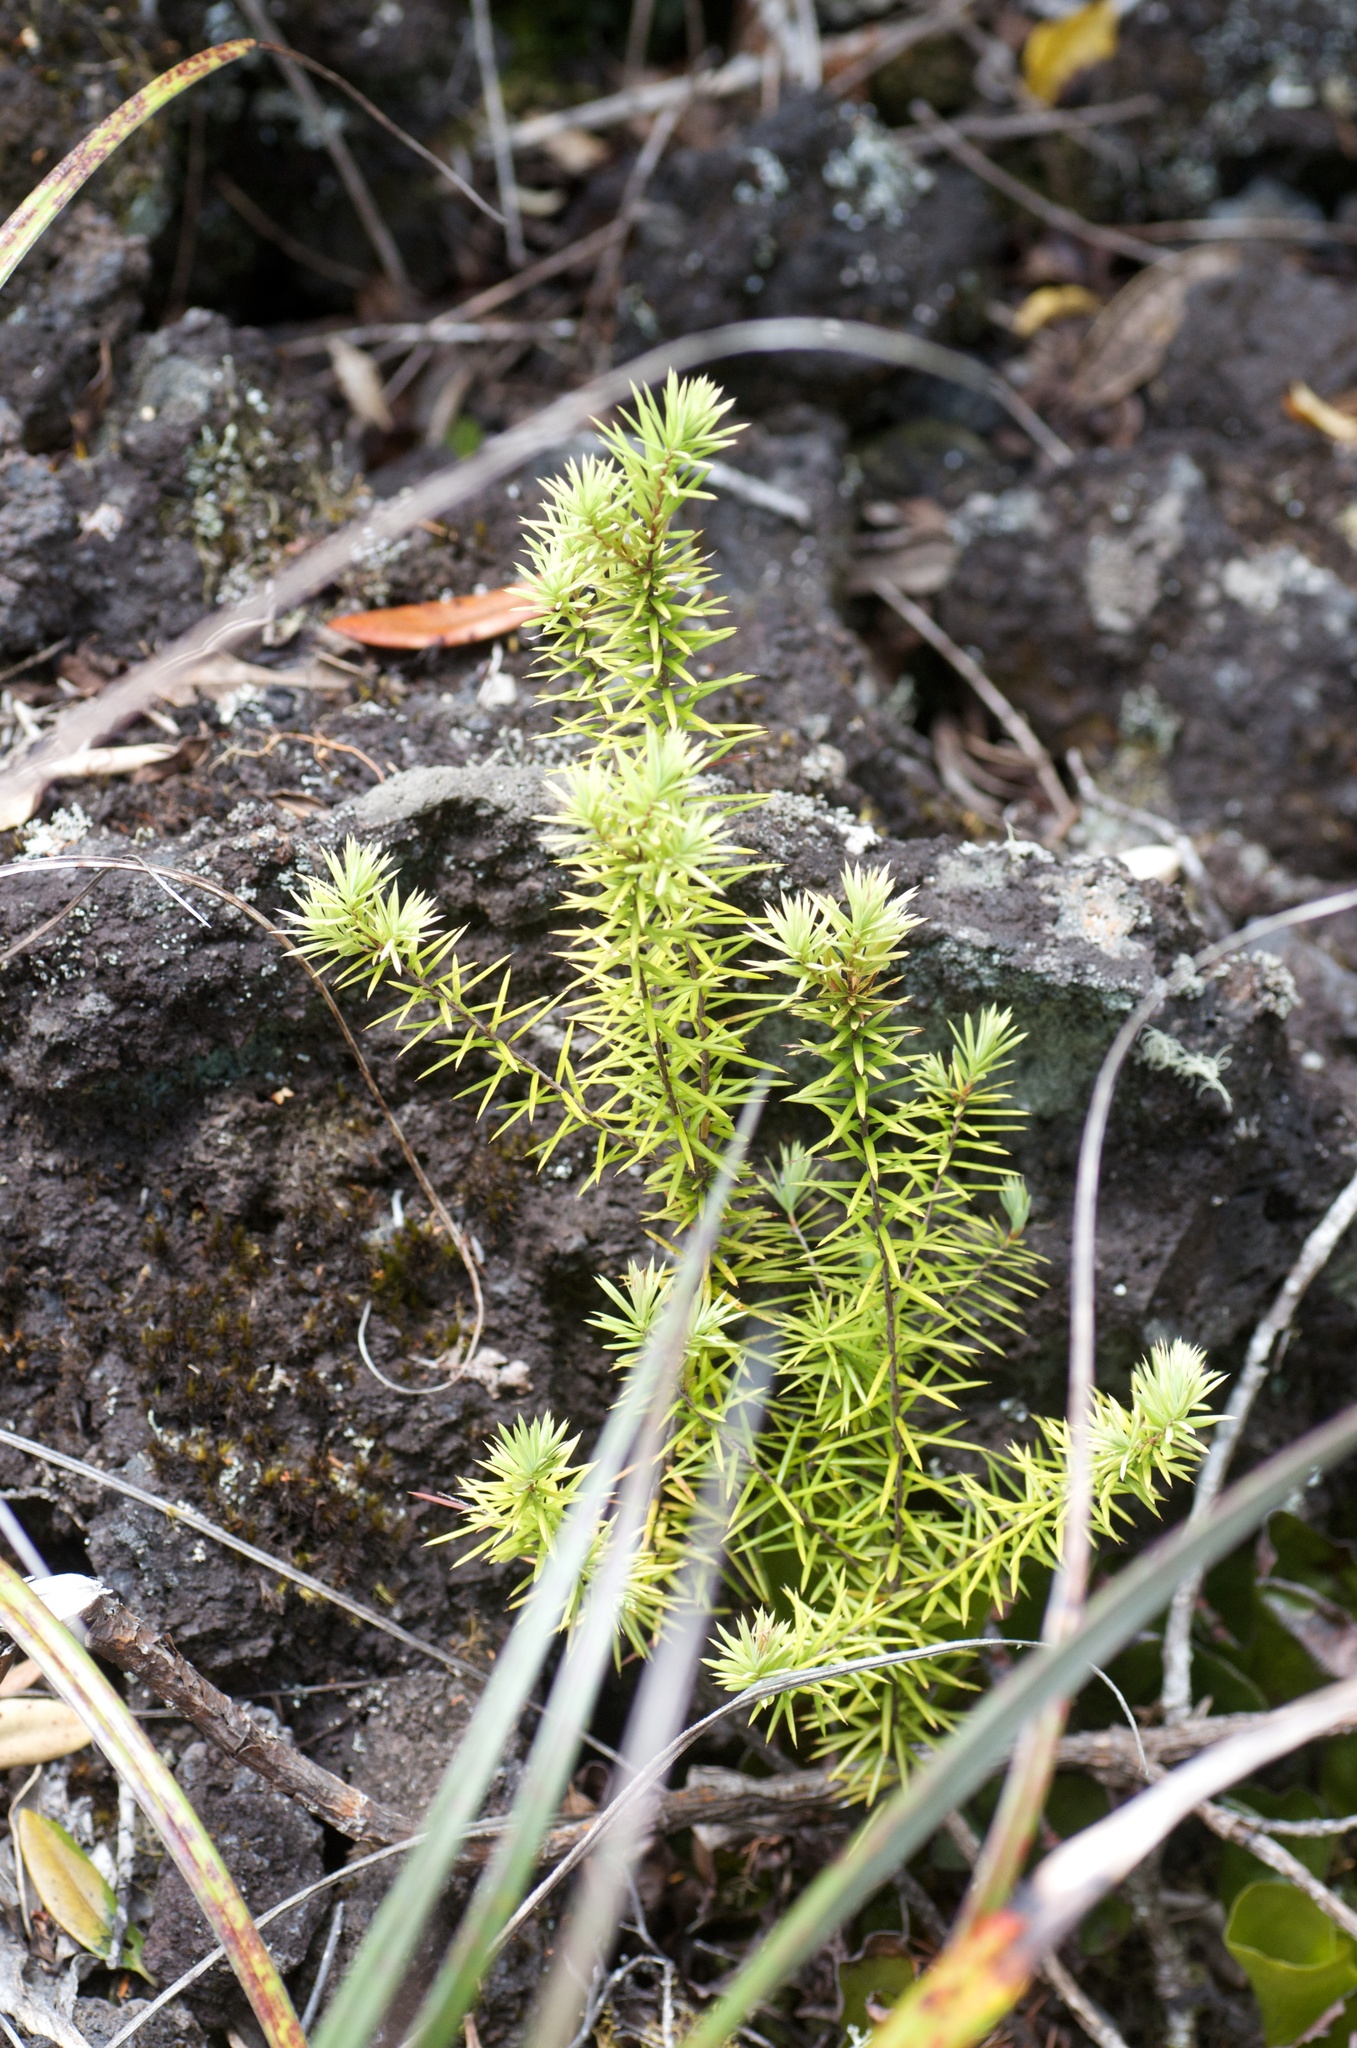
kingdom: Plantae
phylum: Tracheophyta
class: Magnoliopsida
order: Ericales
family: Ericaceae
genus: Leptecophylla
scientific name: Leptecophylla juniperina
